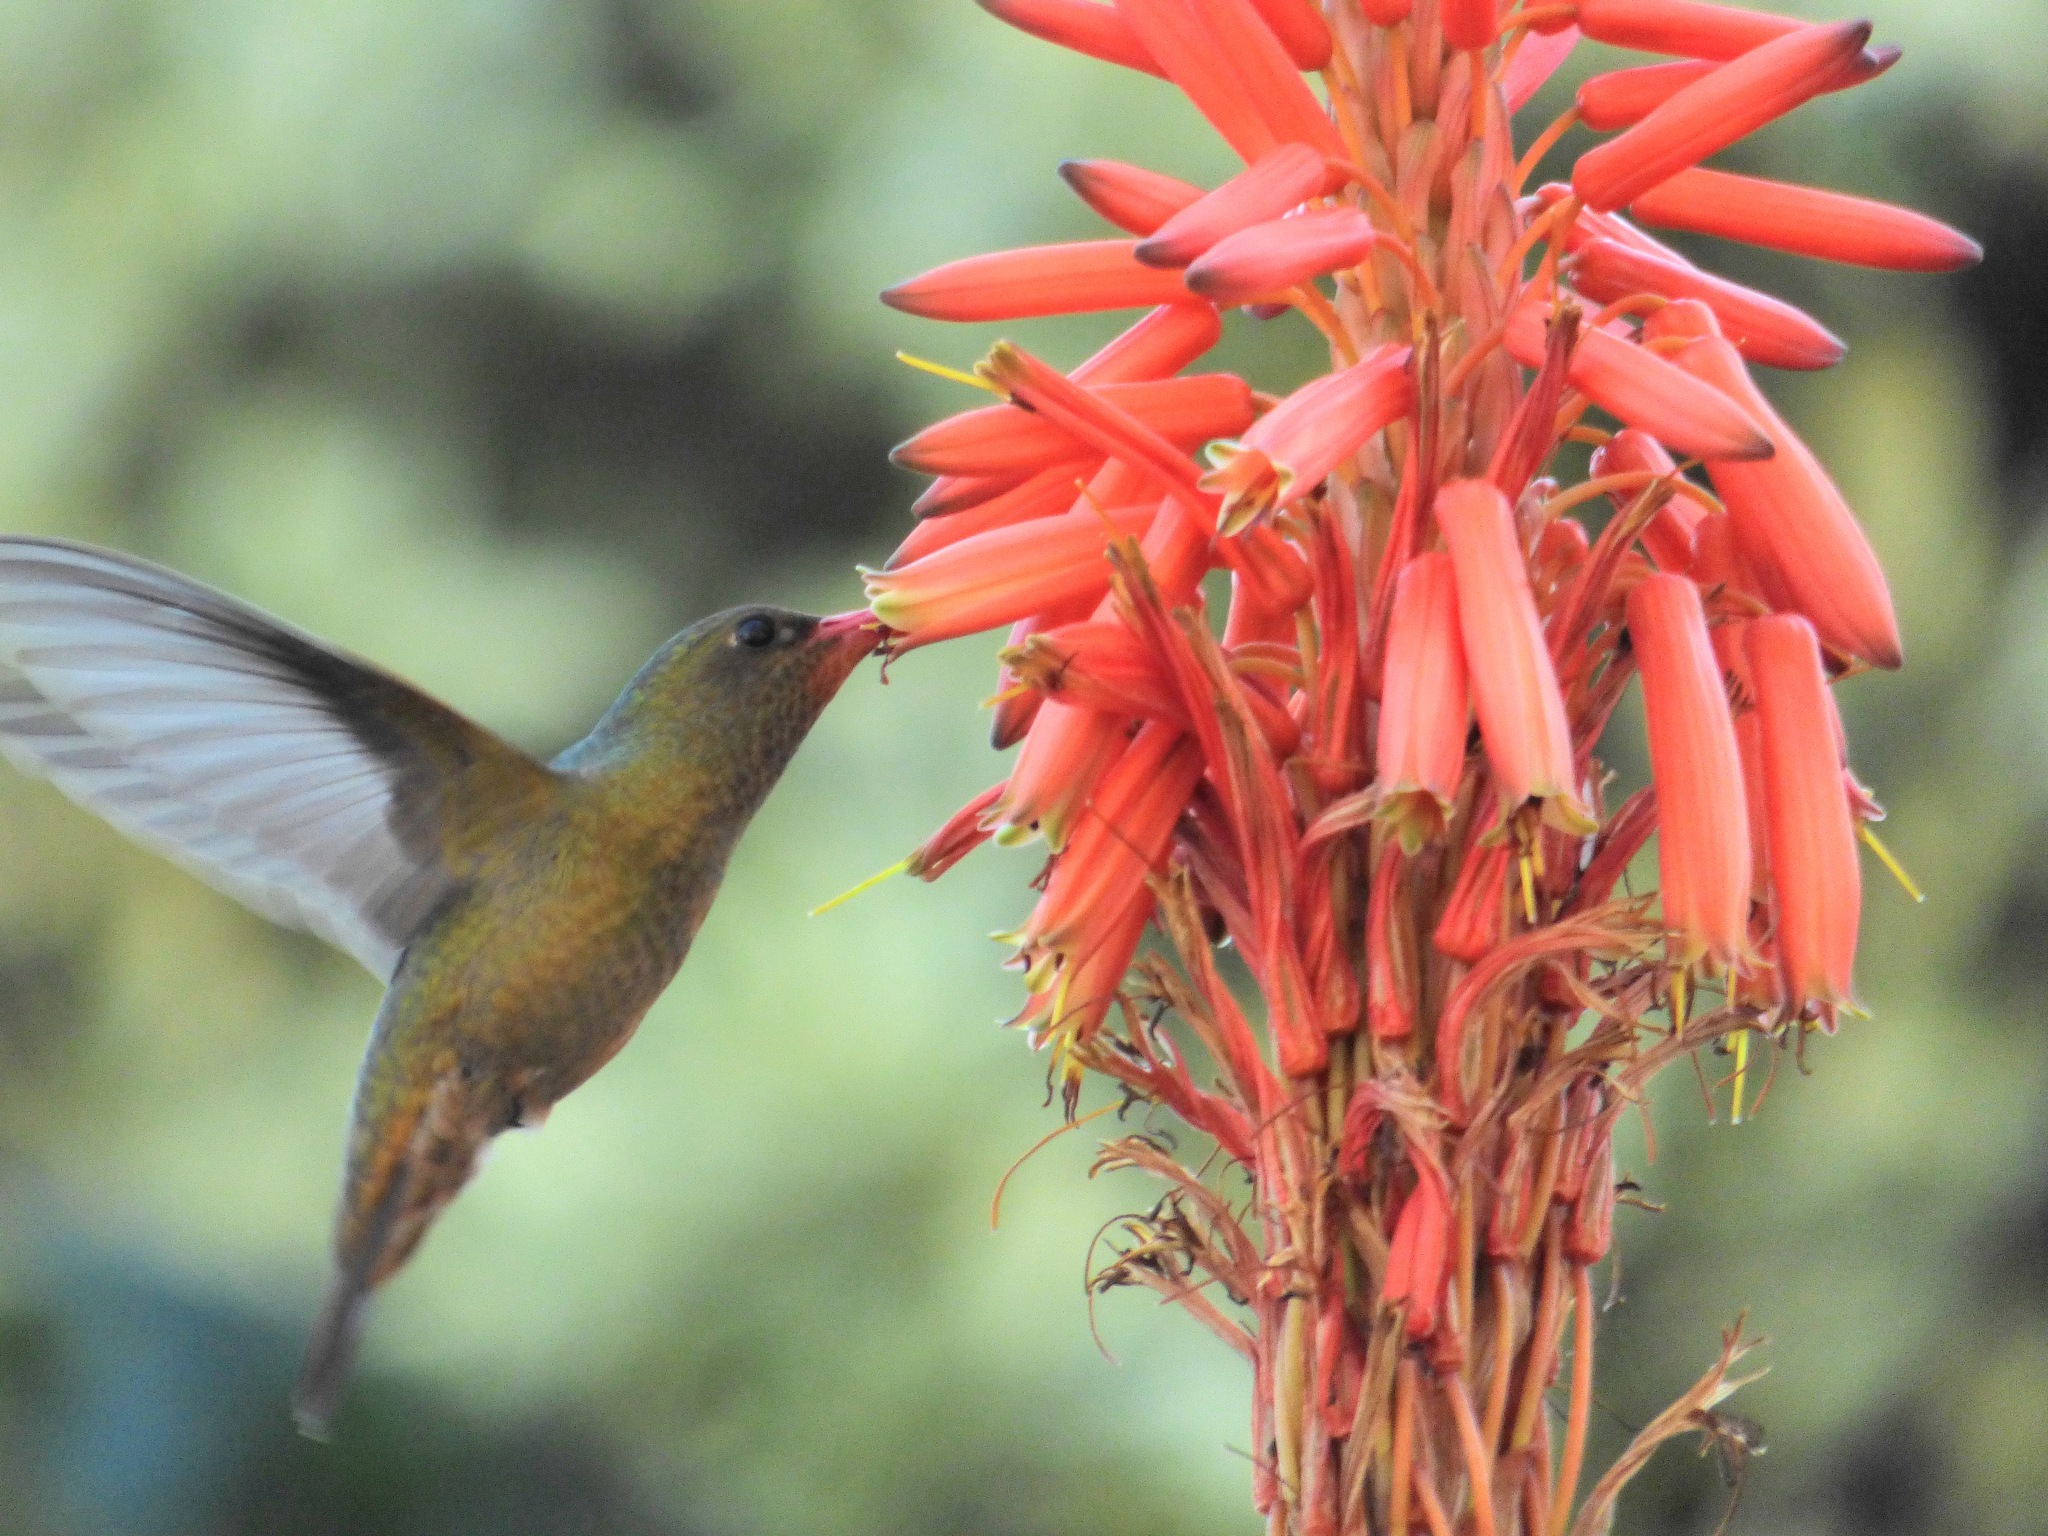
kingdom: Animalia
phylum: Chordata
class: Aves
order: Apodiformes
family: Trochilidae
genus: Hylocharis
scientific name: Hylocharis chrysura
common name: Gilded sapphire
